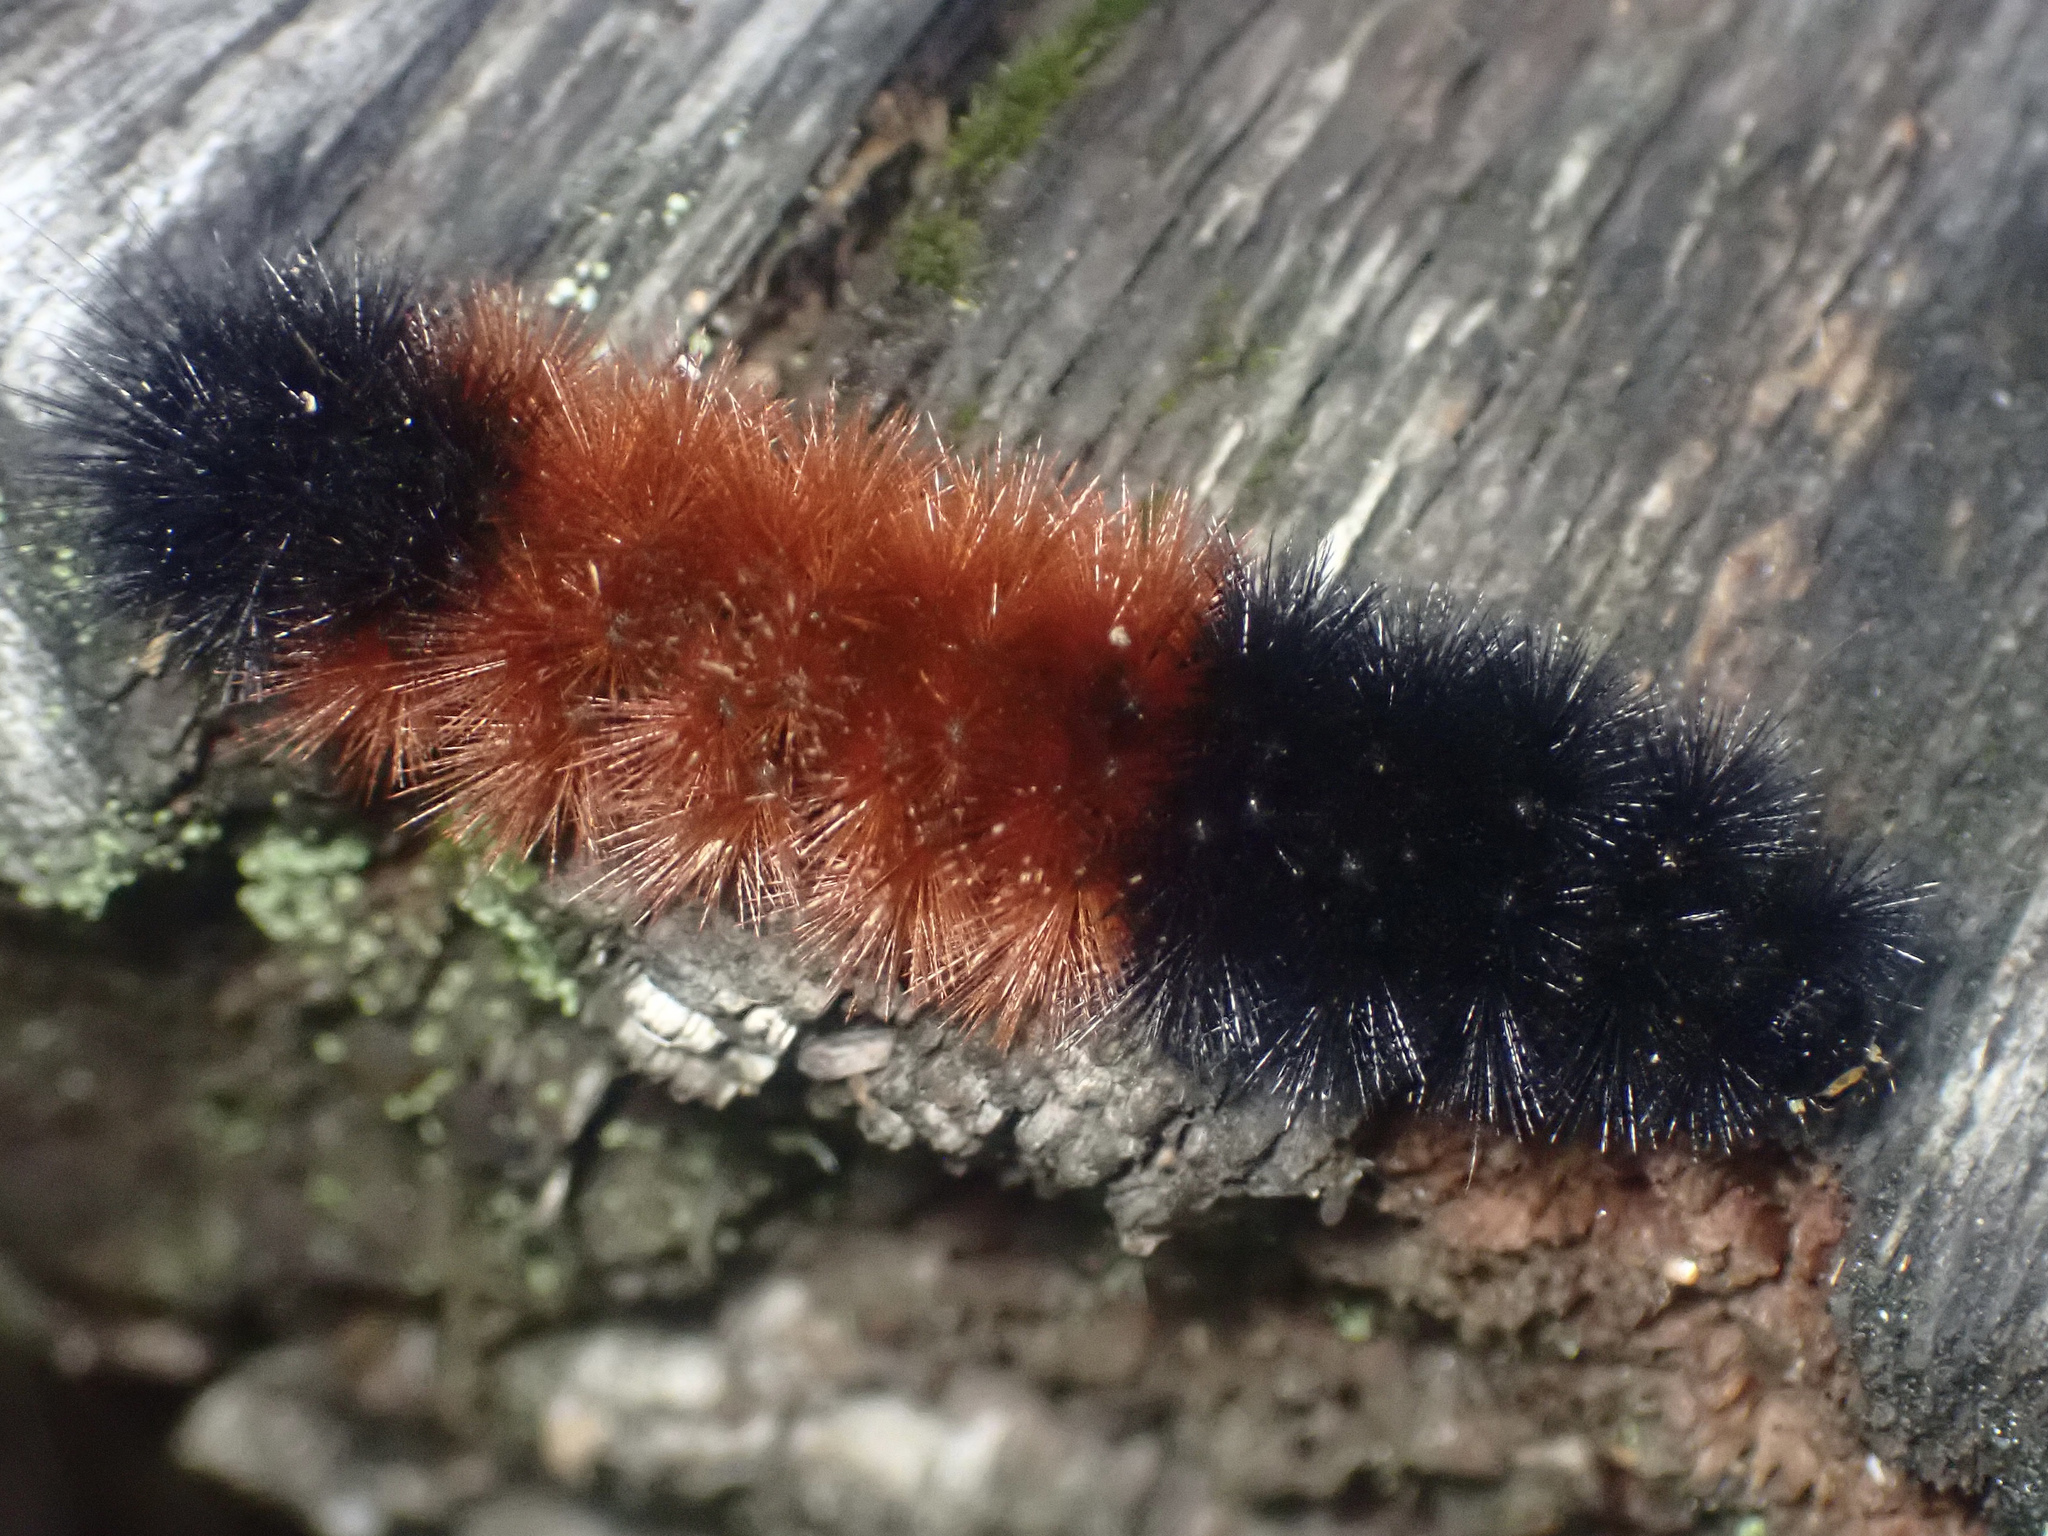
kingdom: Animalia
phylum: Arthropoda
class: Insecta
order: Lepidoptera
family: Erebidae
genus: Pyrrharctia
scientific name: Pyrrharctia isabella
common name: Isabella tiger moth
